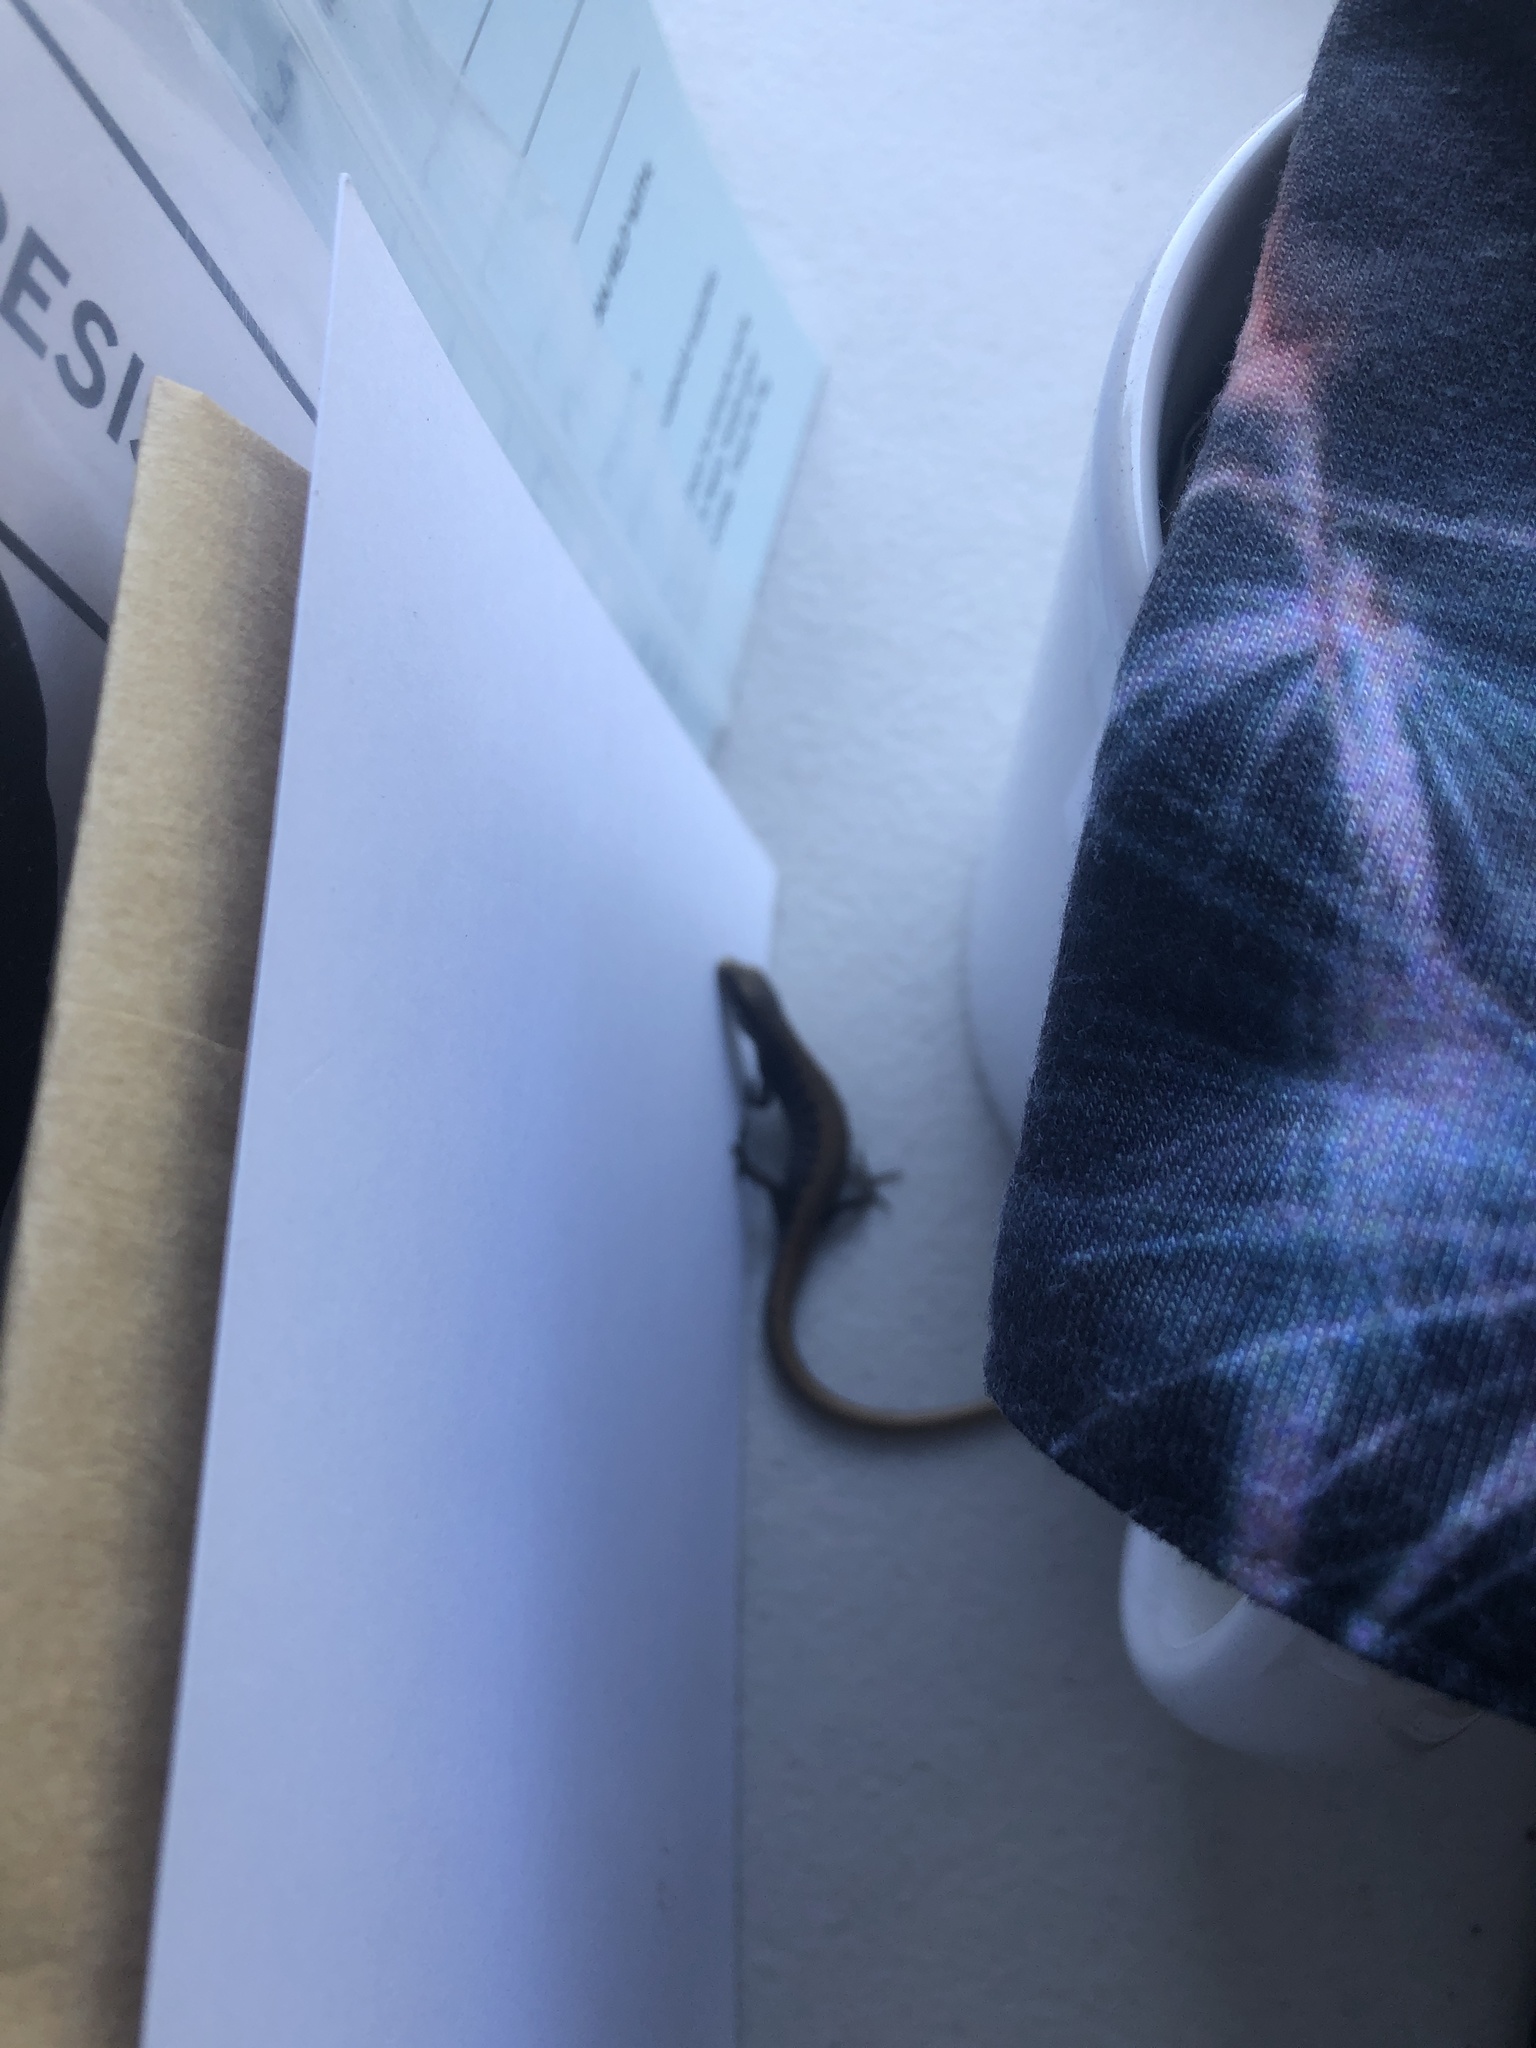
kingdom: Animalia
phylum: Chordata
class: Squamata
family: Anguidae
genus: Elgaria
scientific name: Elgaria multicarinata
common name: Southern alligator lizard
